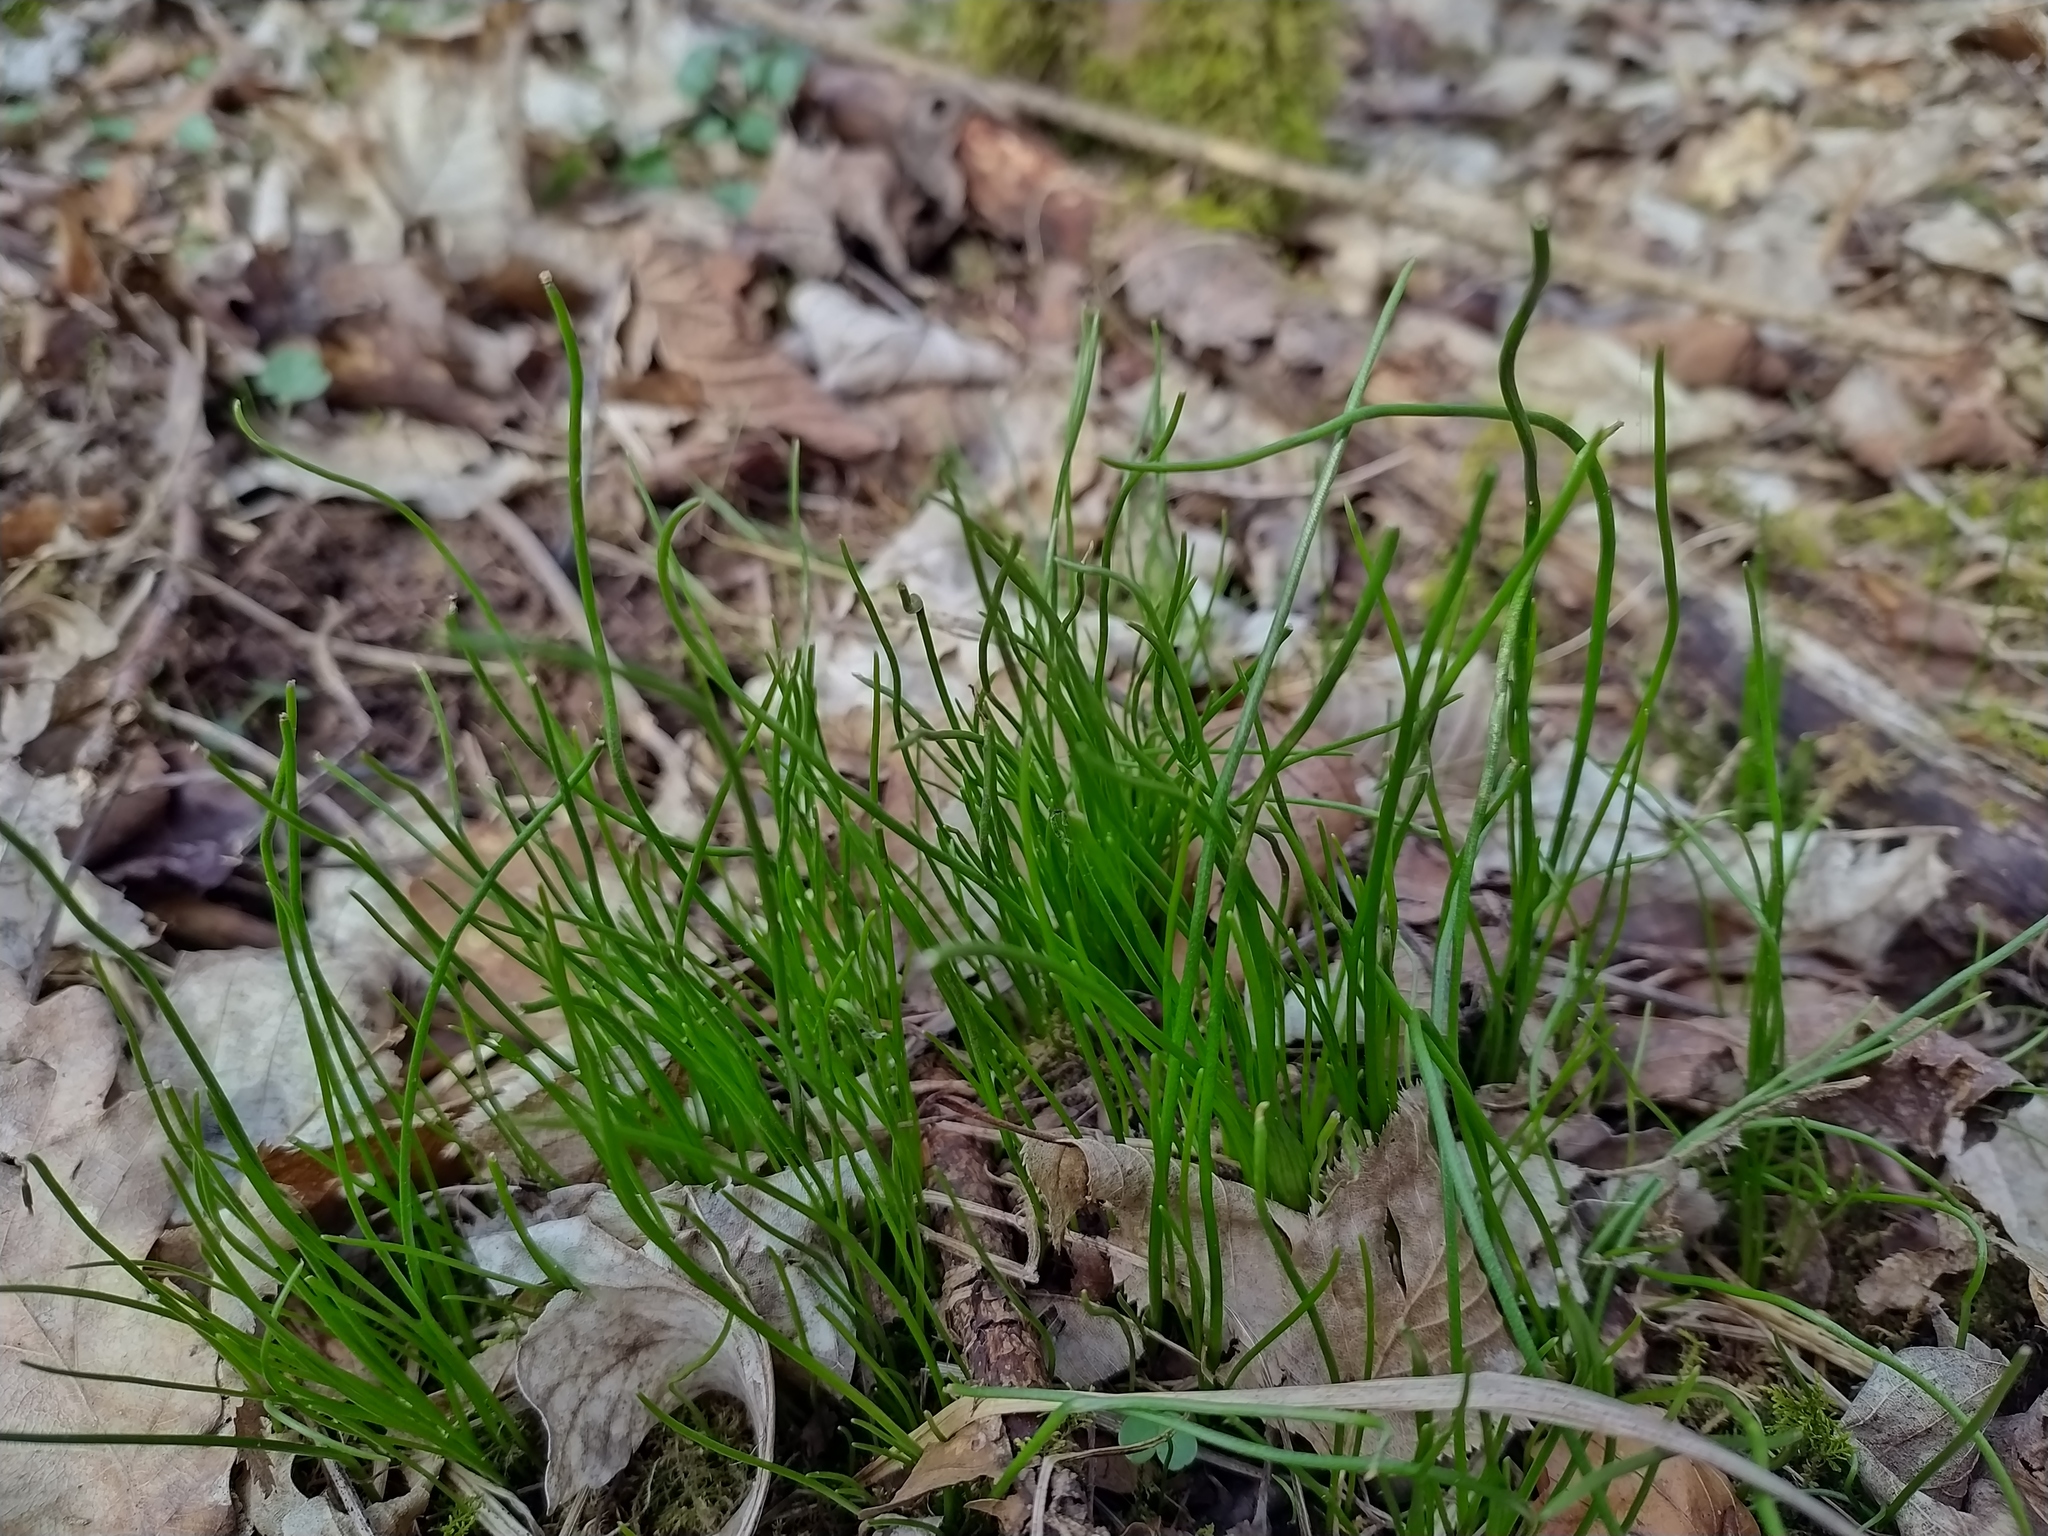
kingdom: Plantae
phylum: Tracheophyta
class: Liliopsida
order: Liliales
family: Liliaceae
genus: Gagea
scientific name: Gagea spathacea
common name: Belgian gagea
